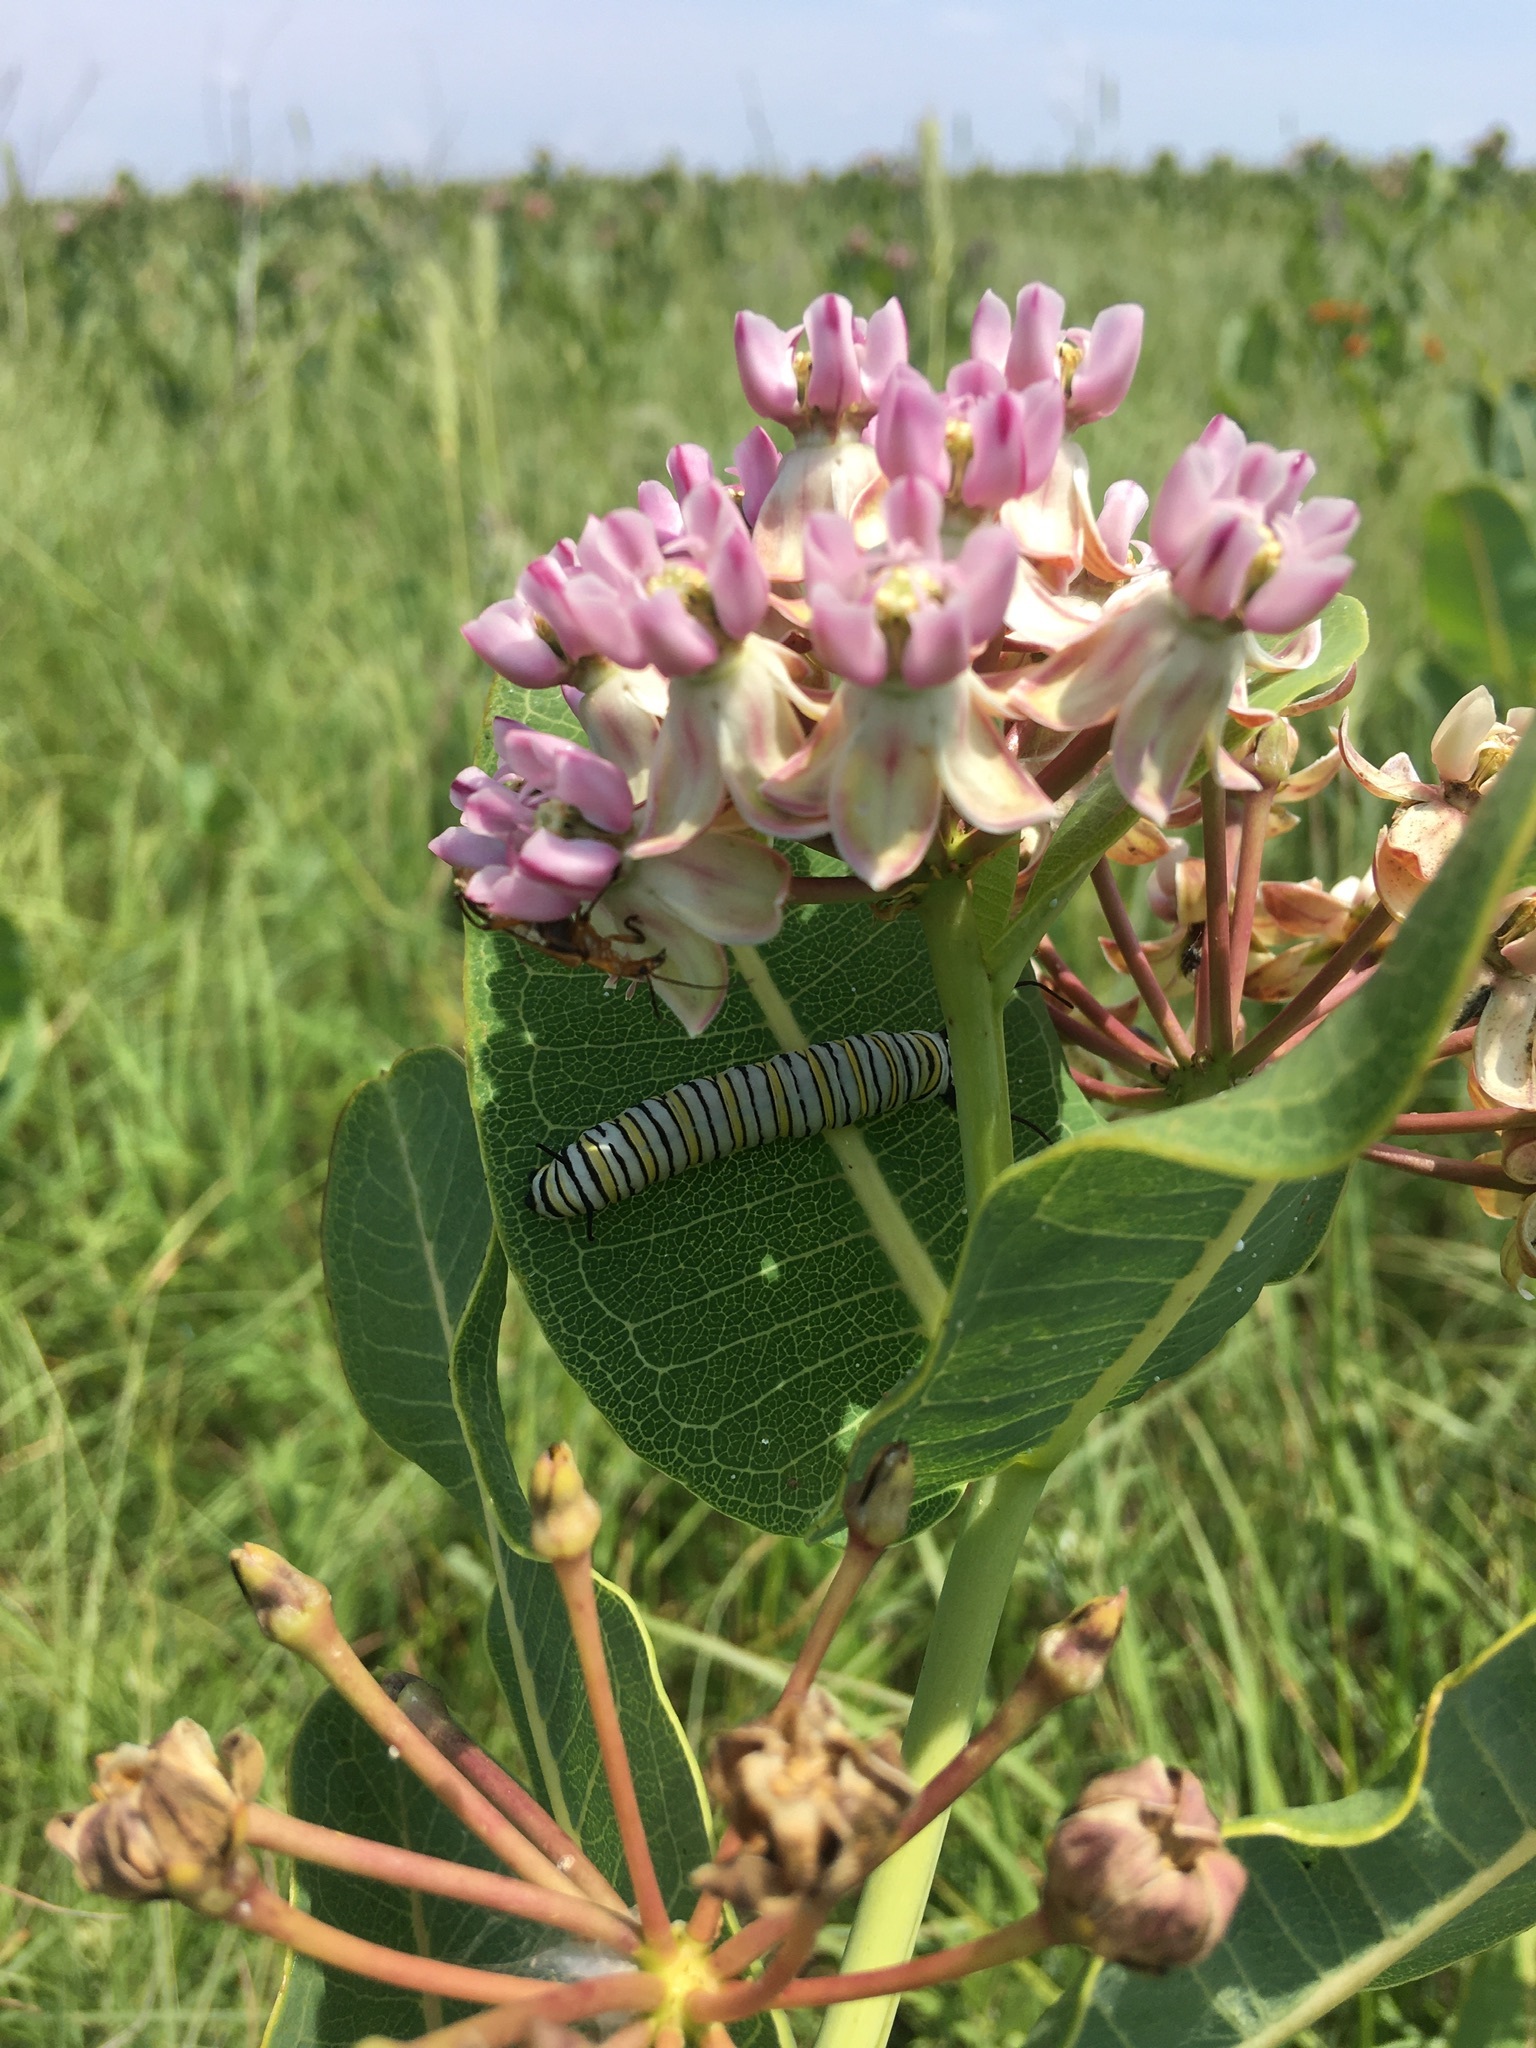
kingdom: Animalia
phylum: Arthropoda
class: Insecta
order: Lepidoptera
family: Nymphalidae
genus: Danaus
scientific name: Danaus plexippus
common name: Monarch
